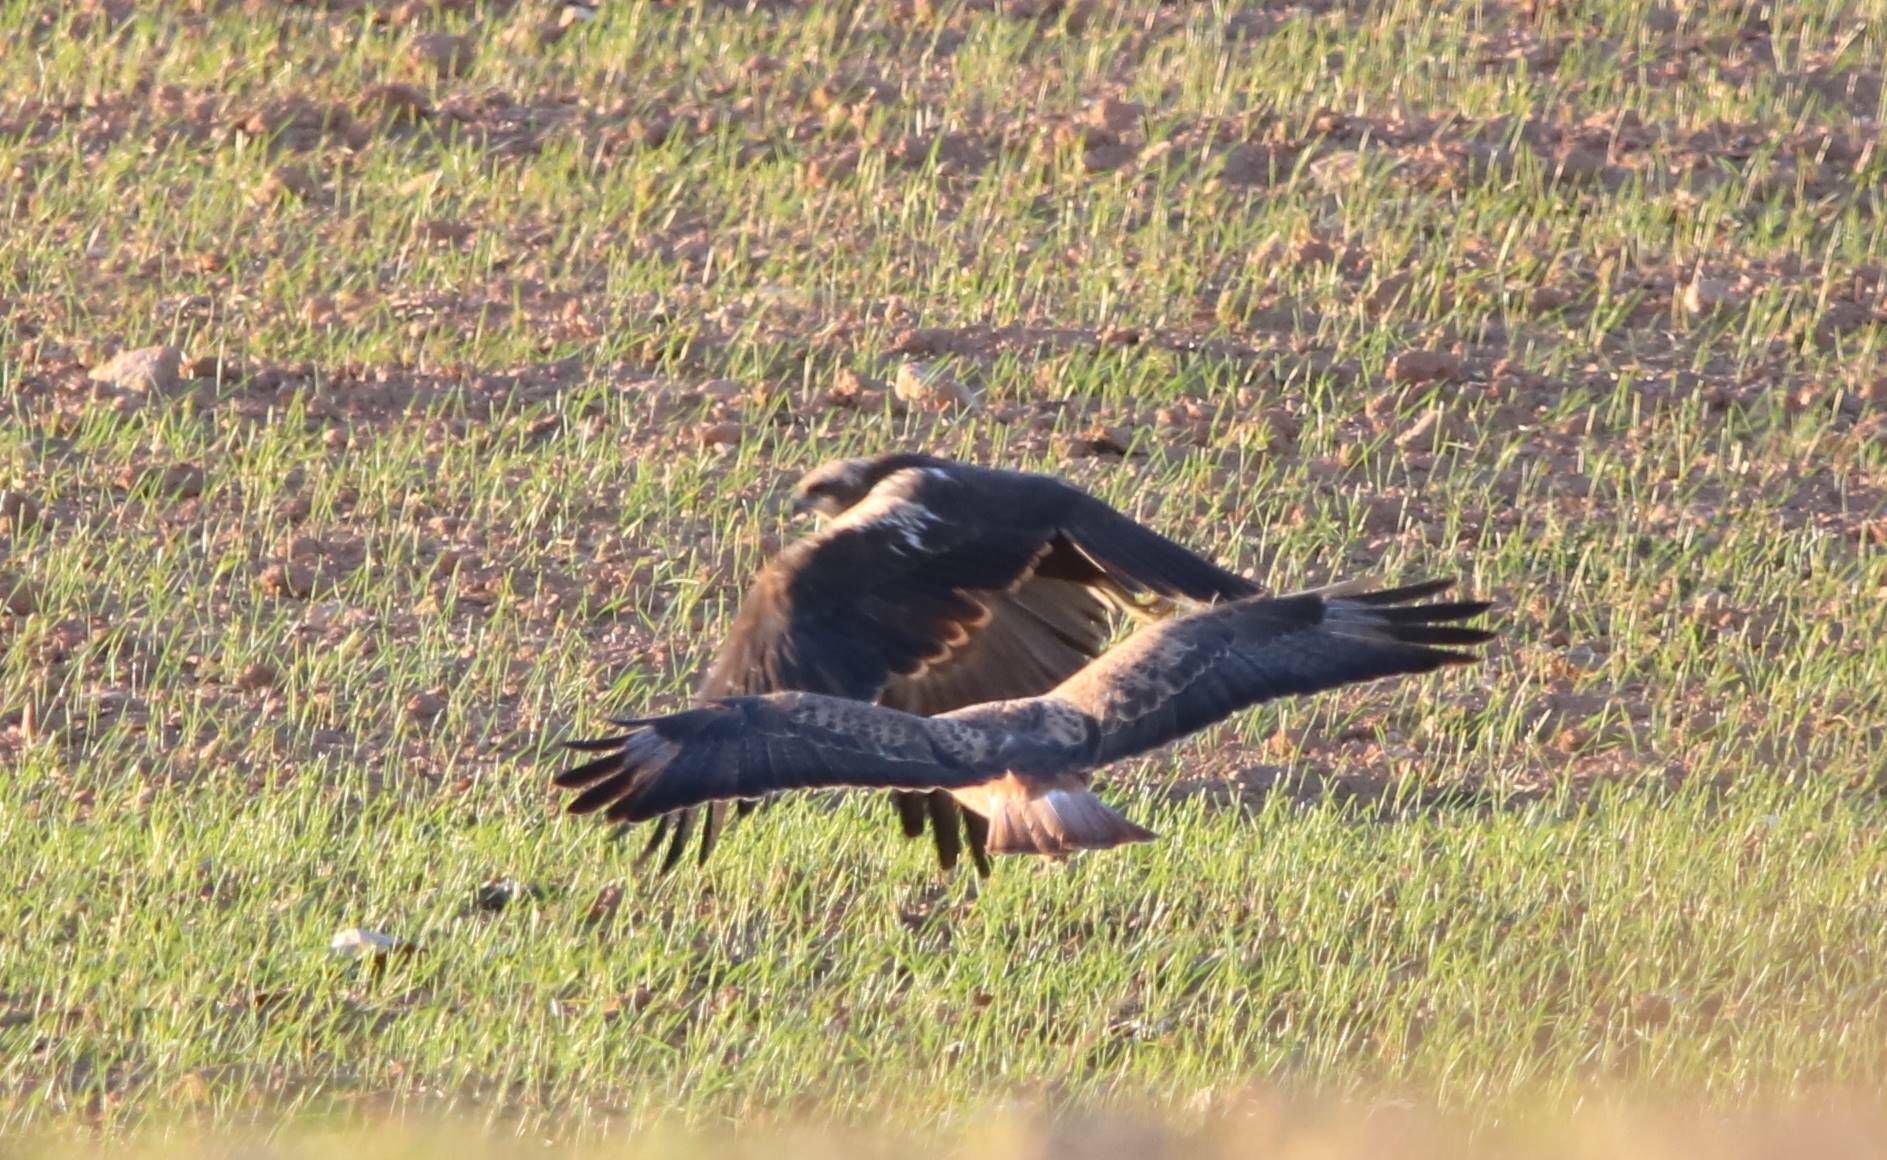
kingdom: Animalia
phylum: Chordata
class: Aves
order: Accipitriformes
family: Accipitridae
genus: Circus
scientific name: Circus aeruginosus
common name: Western marsh harrier
